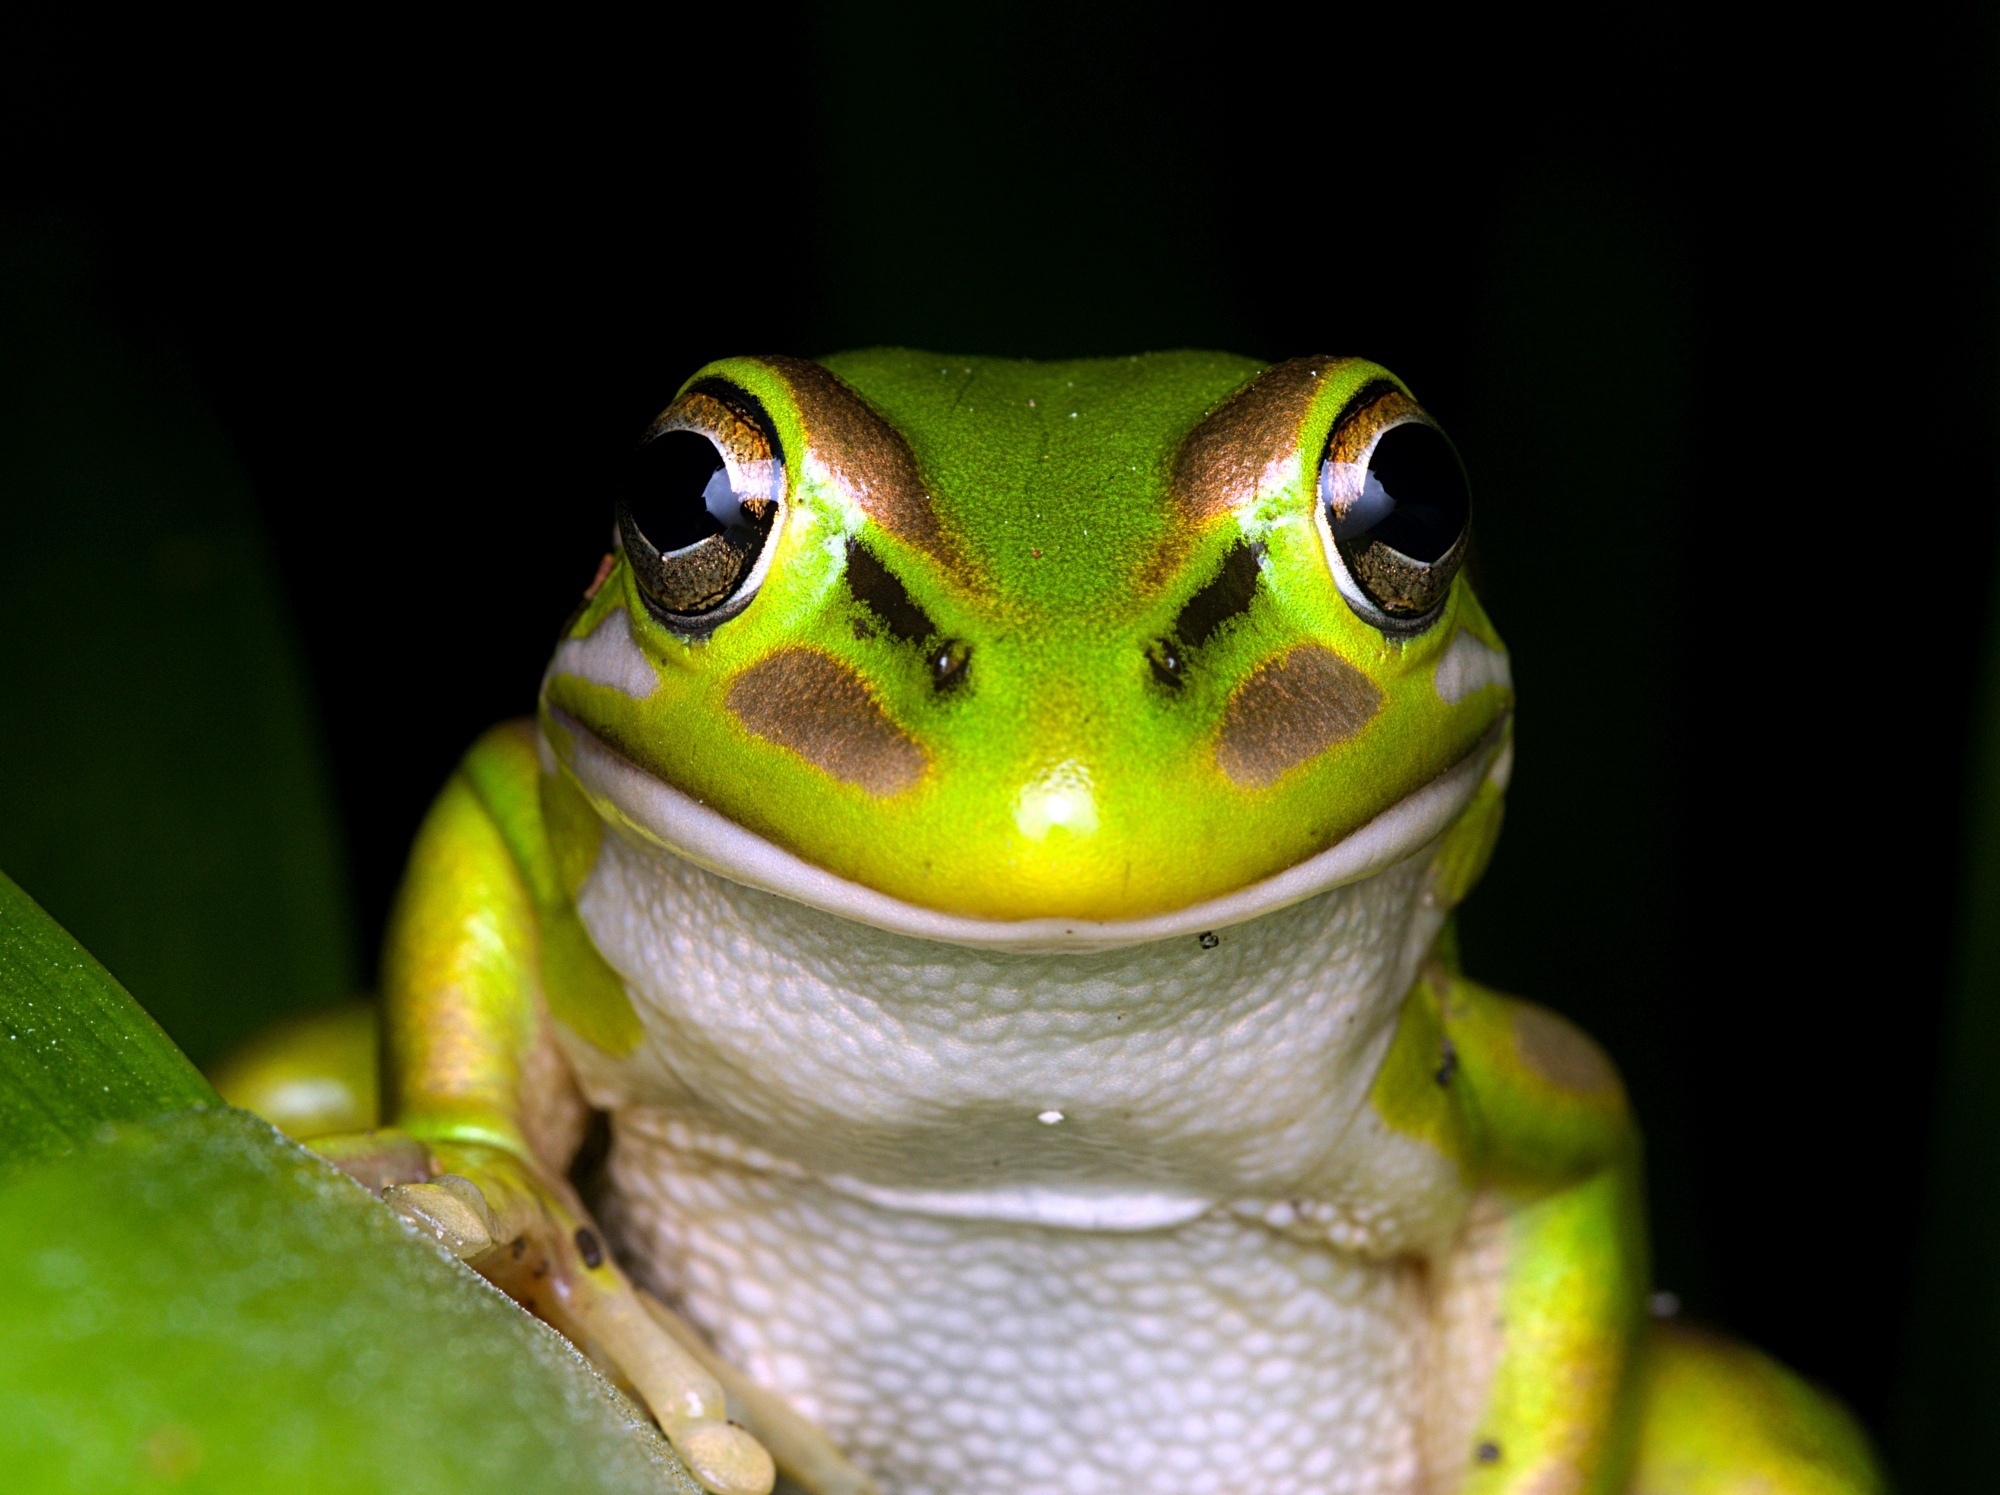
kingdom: Animalia
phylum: Chordata
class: Amphibia
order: Anura
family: Pelodryadidae
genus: Ranoidea
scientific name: Ranoidea aurea
